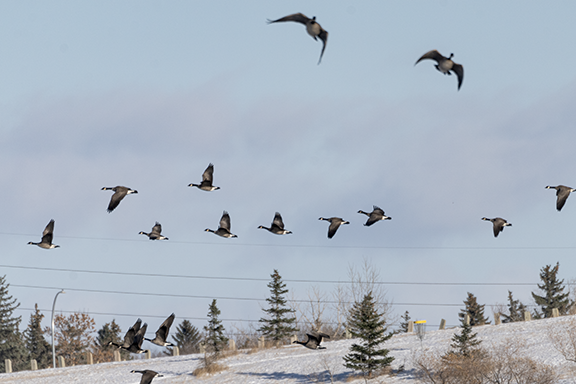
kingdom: Animalia
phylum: Chordata
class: Aves
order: Anseriformes
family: Anatidae
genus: Branta
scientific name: Branta canadensis
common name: Canada goose
